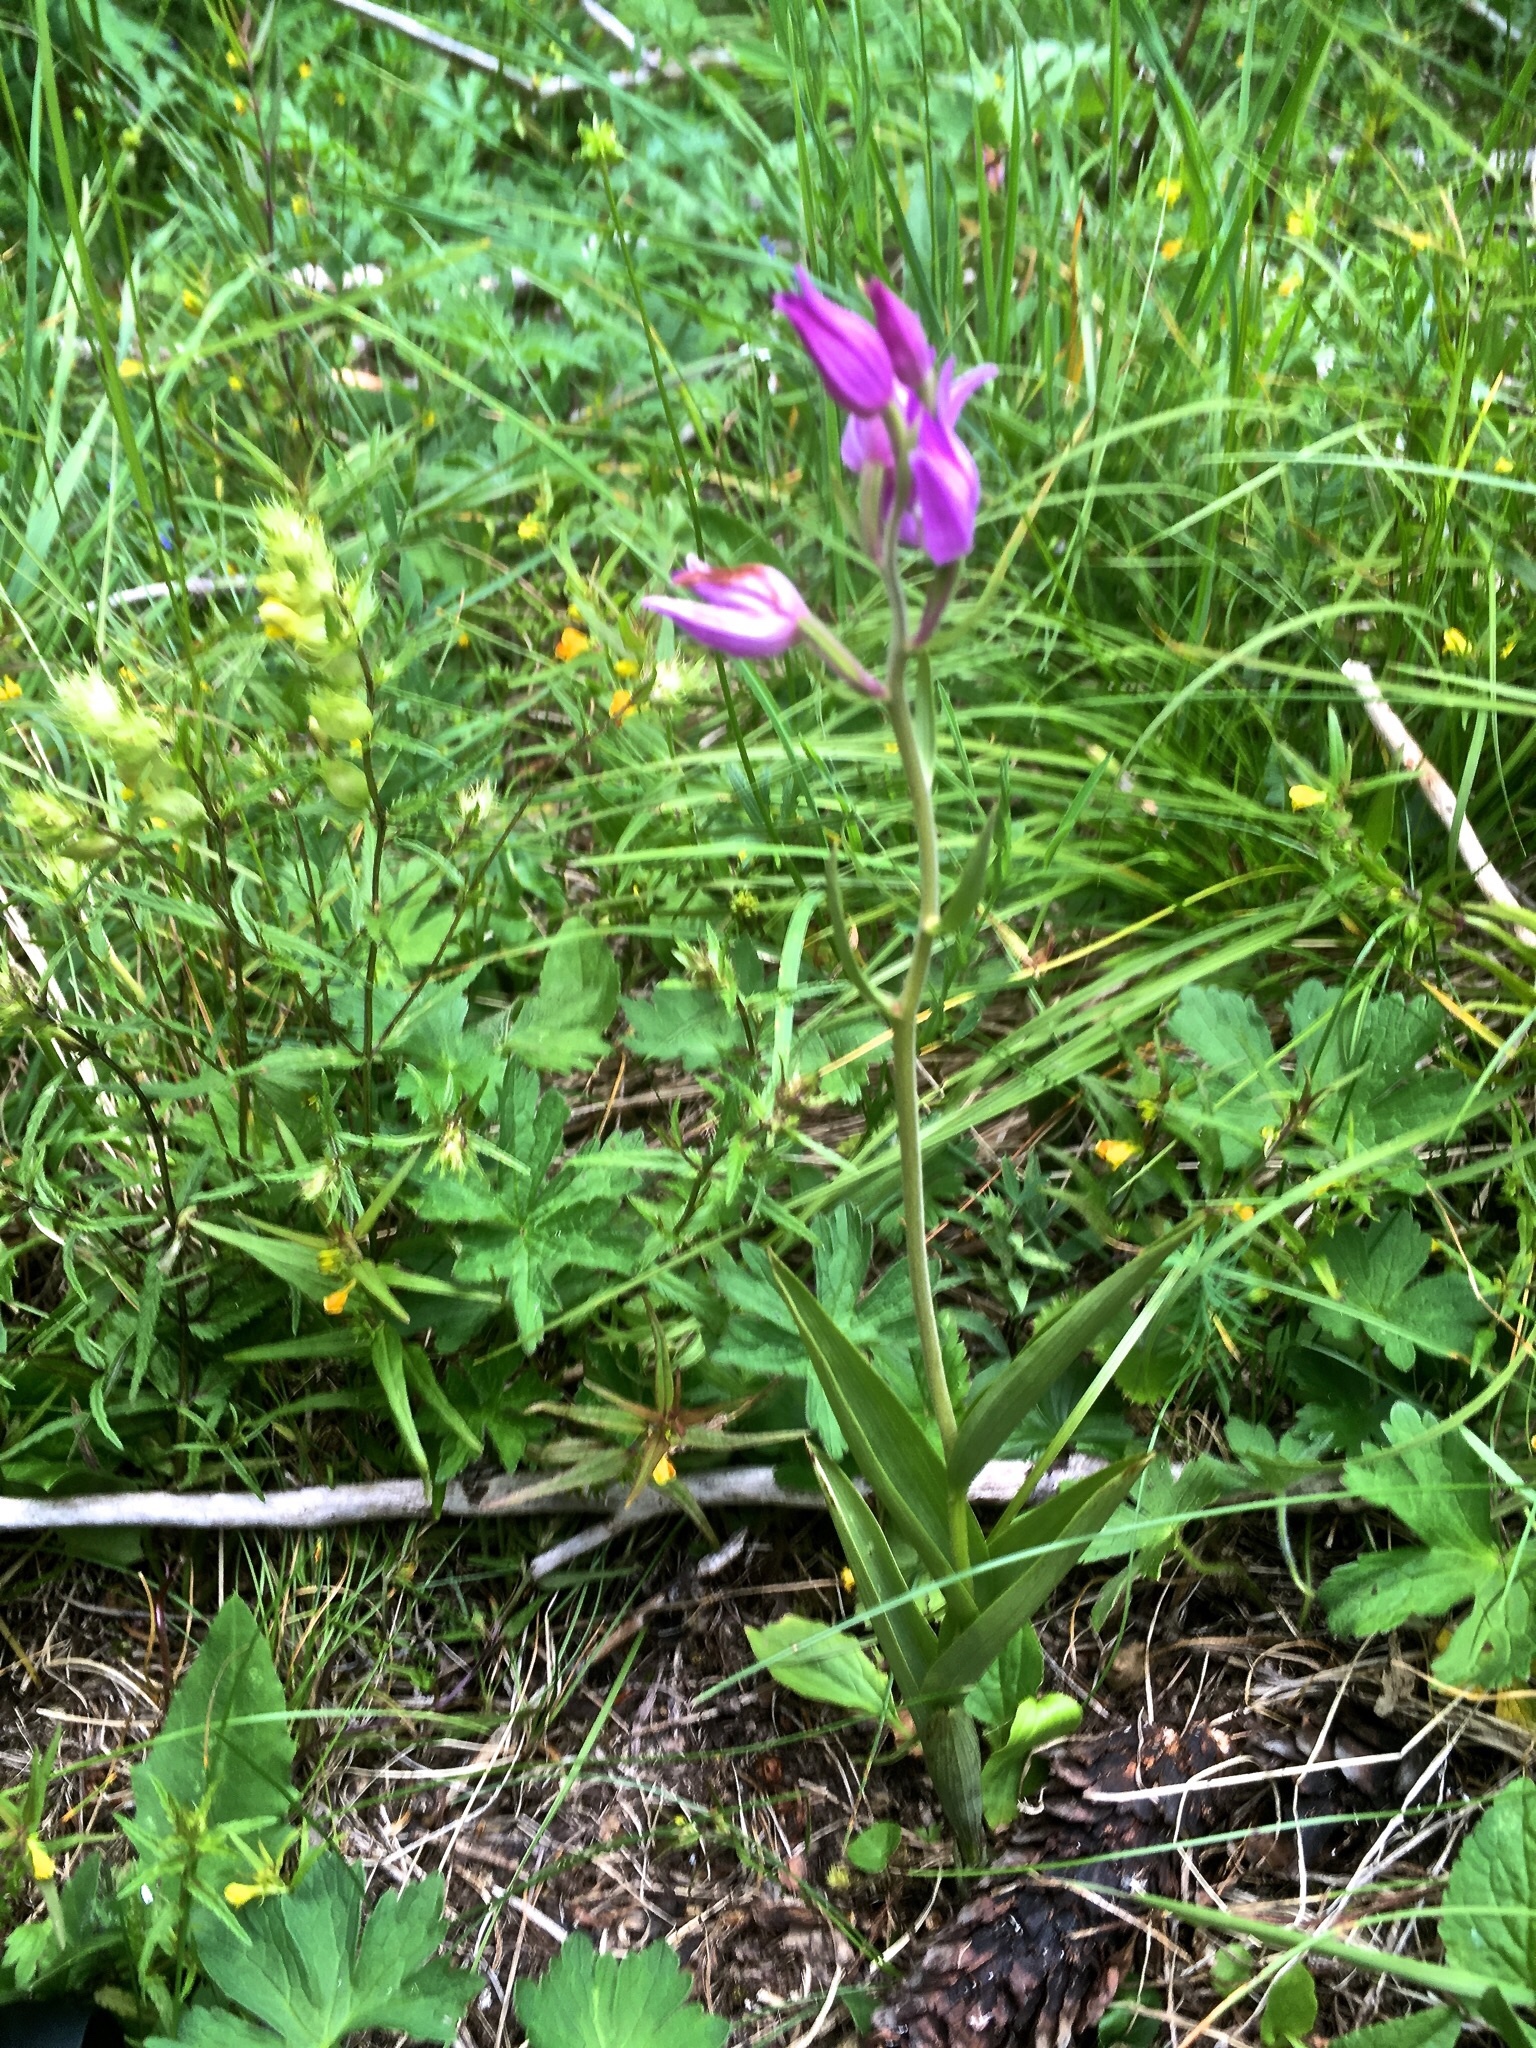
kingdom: Plantae
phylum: Tracheophyta
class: Liliopsida
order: Asparagales
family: Orchidaceae
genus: Cephalanthera
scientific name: Cephalanthera rubra
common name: Red helleborine
